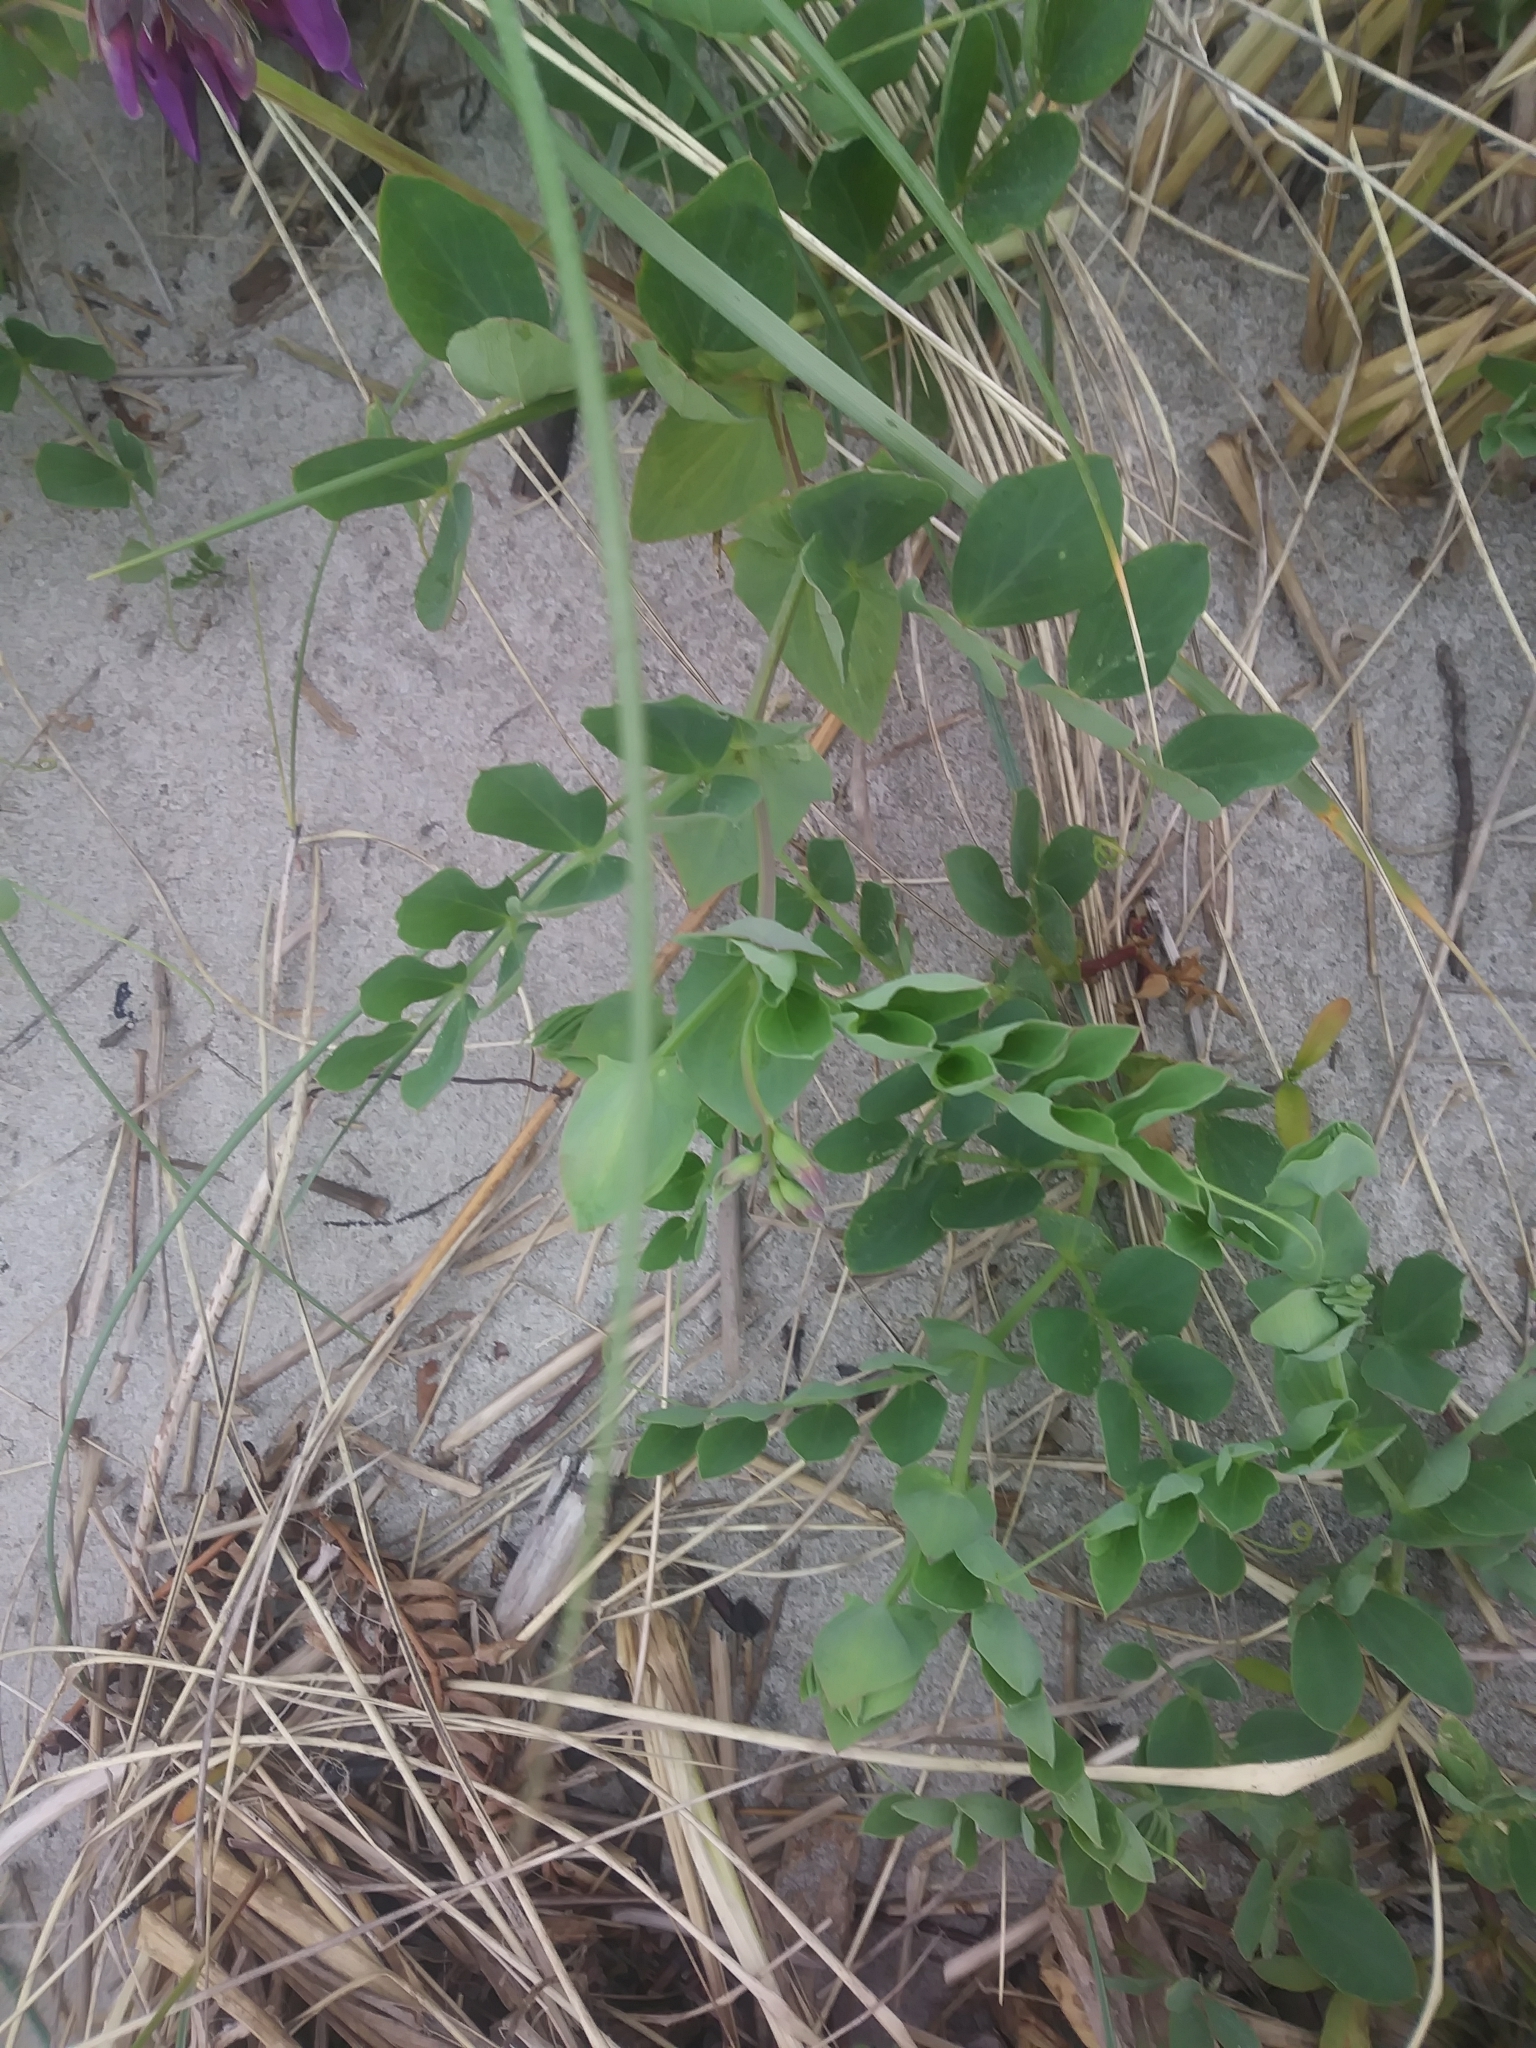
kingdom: Plantae
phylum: Tracheophyta
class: Magnoliopsida
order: Fabales
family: Fabaceae
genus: Lathyrus
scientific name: Lathyrus japonicus
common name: Sea pea
